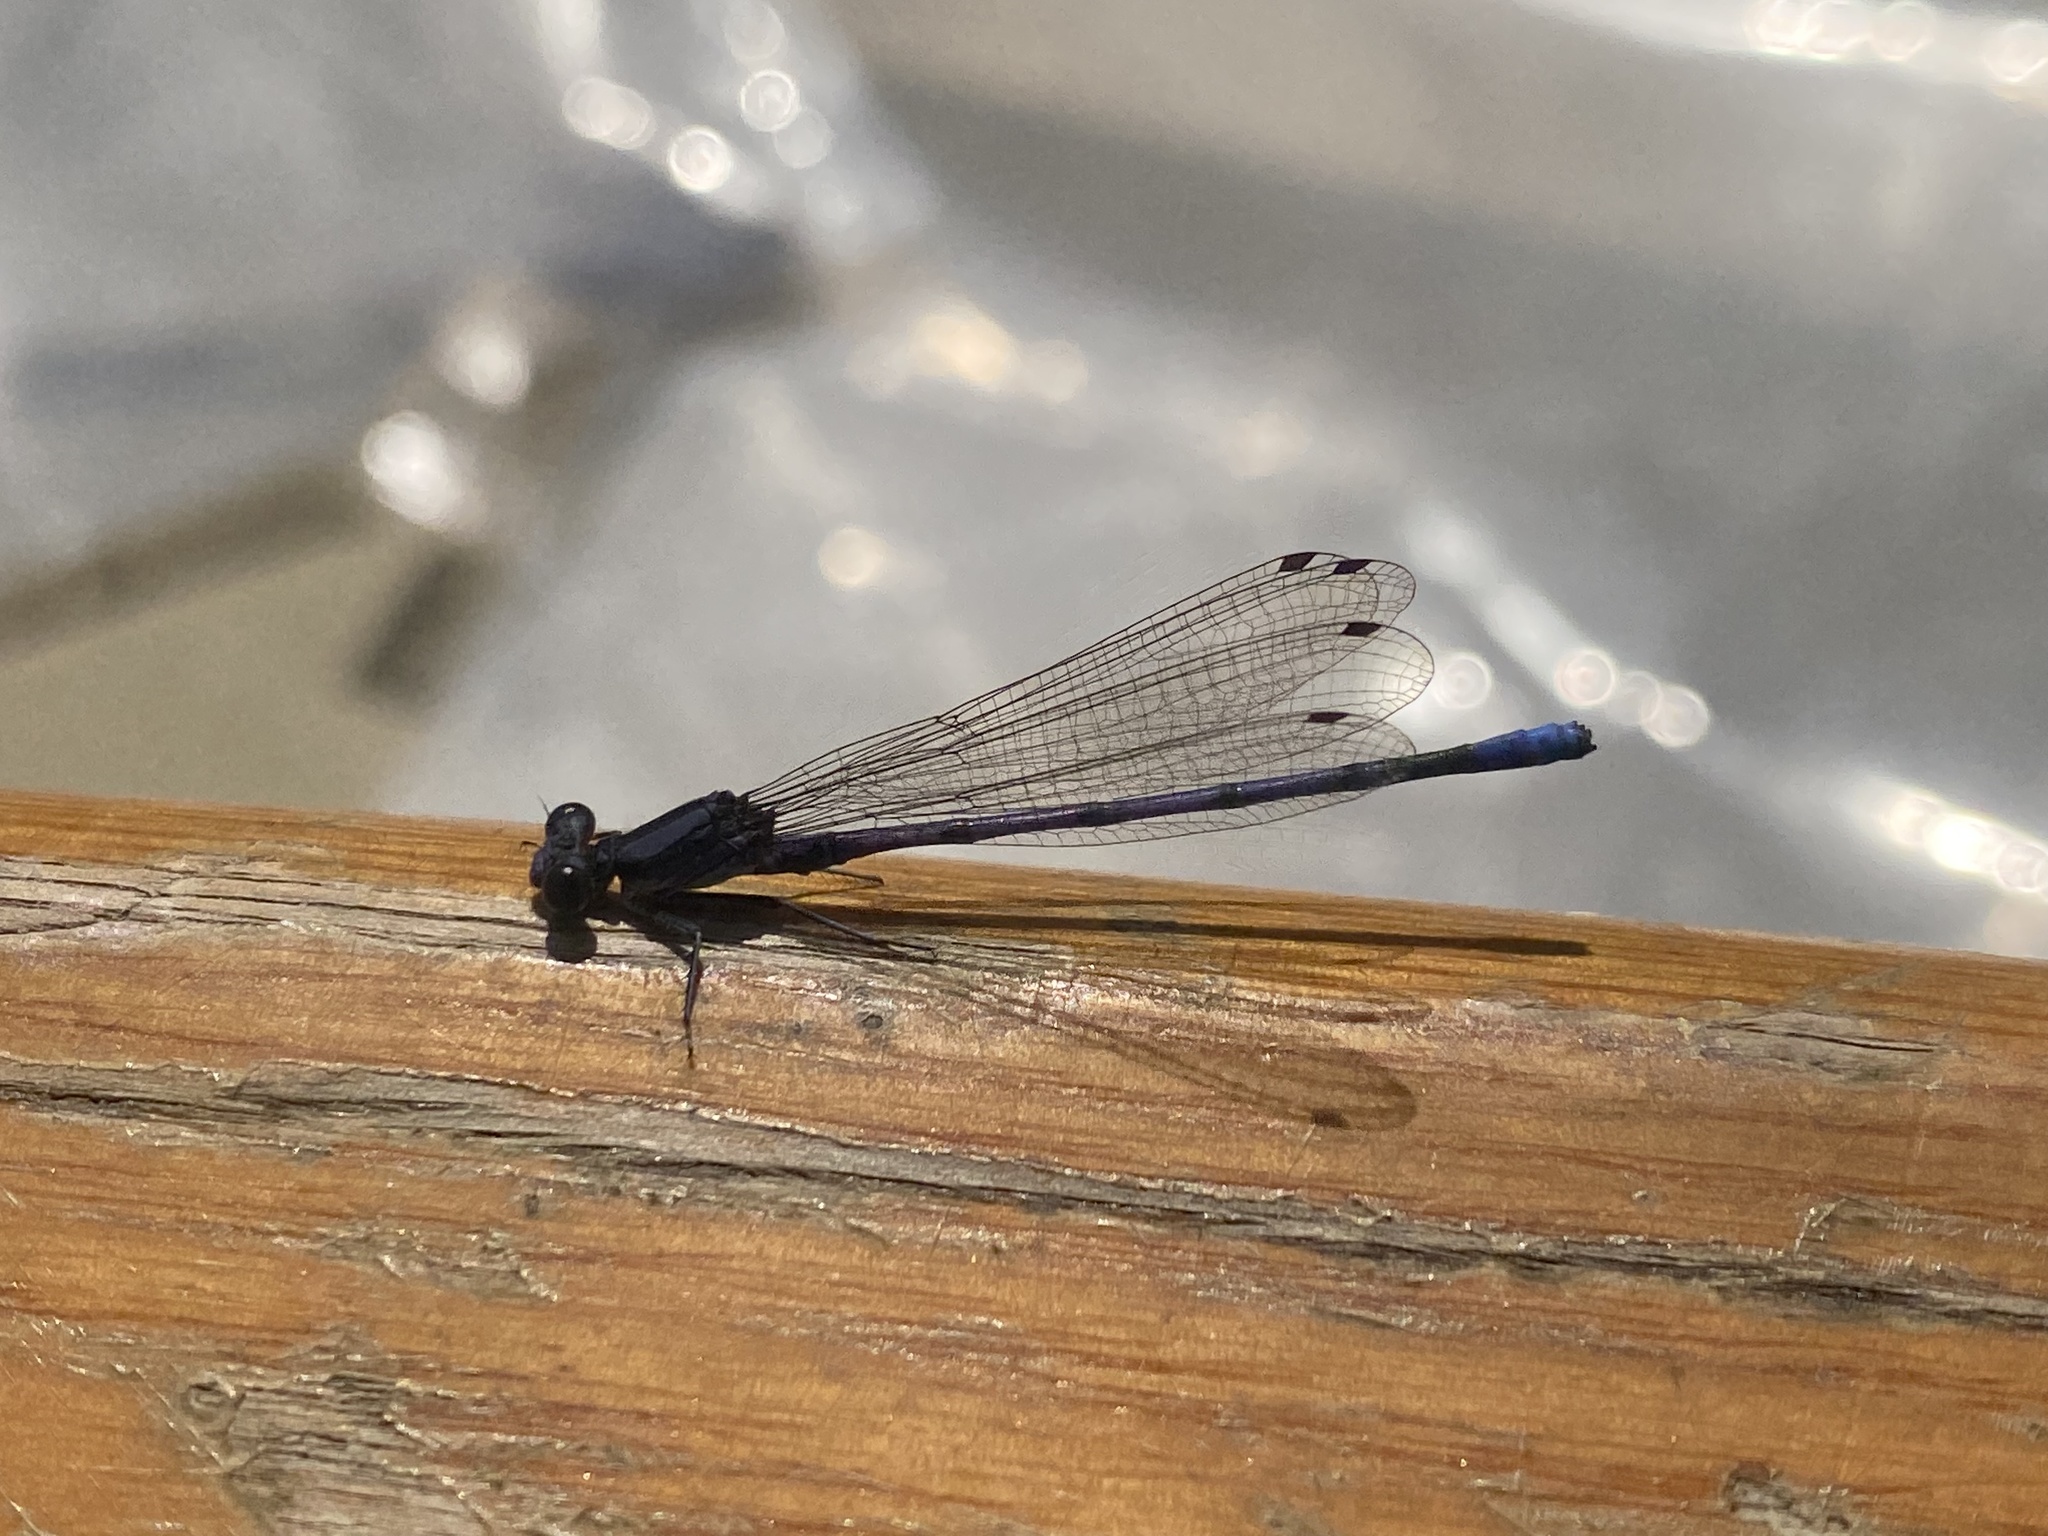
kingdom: Animalia
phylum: Arthropoda
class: Insecta
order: Odonata
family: Coenagrionidae
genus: Argia
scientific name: Argia fumipennis
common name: Variable dancer
